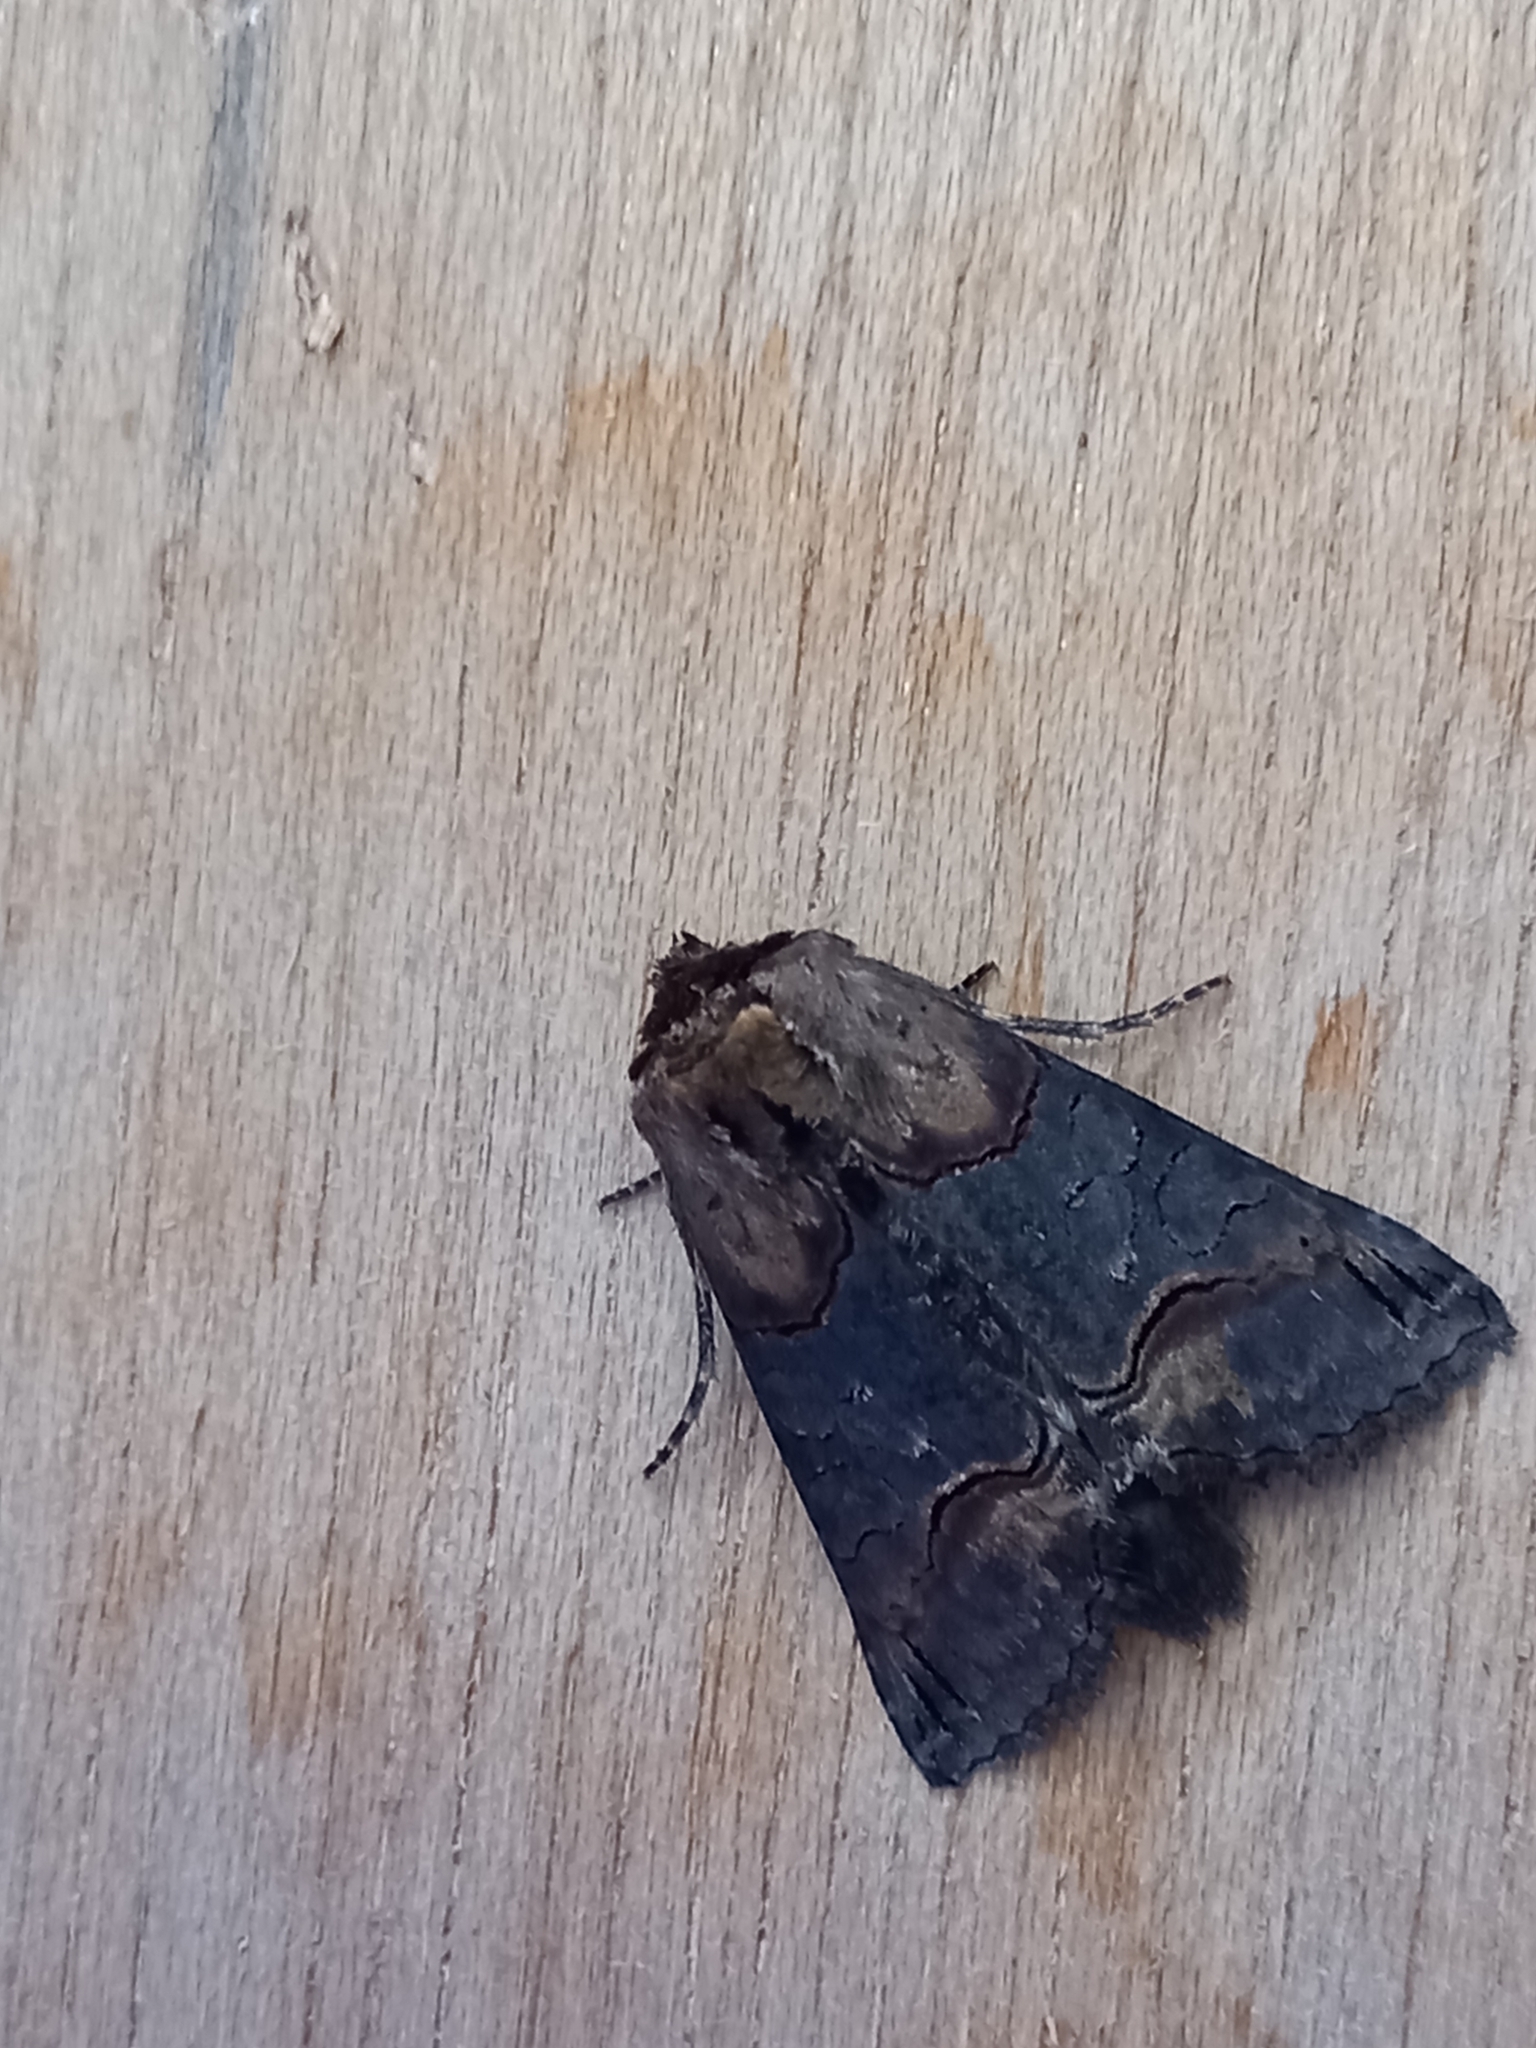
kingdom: Animalia
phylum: Arthropoda
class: Insecta
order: Lepidoptera
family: Noctuidae
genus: Abrostola
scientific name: Abrostola triplasia
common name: Dark spectacle
